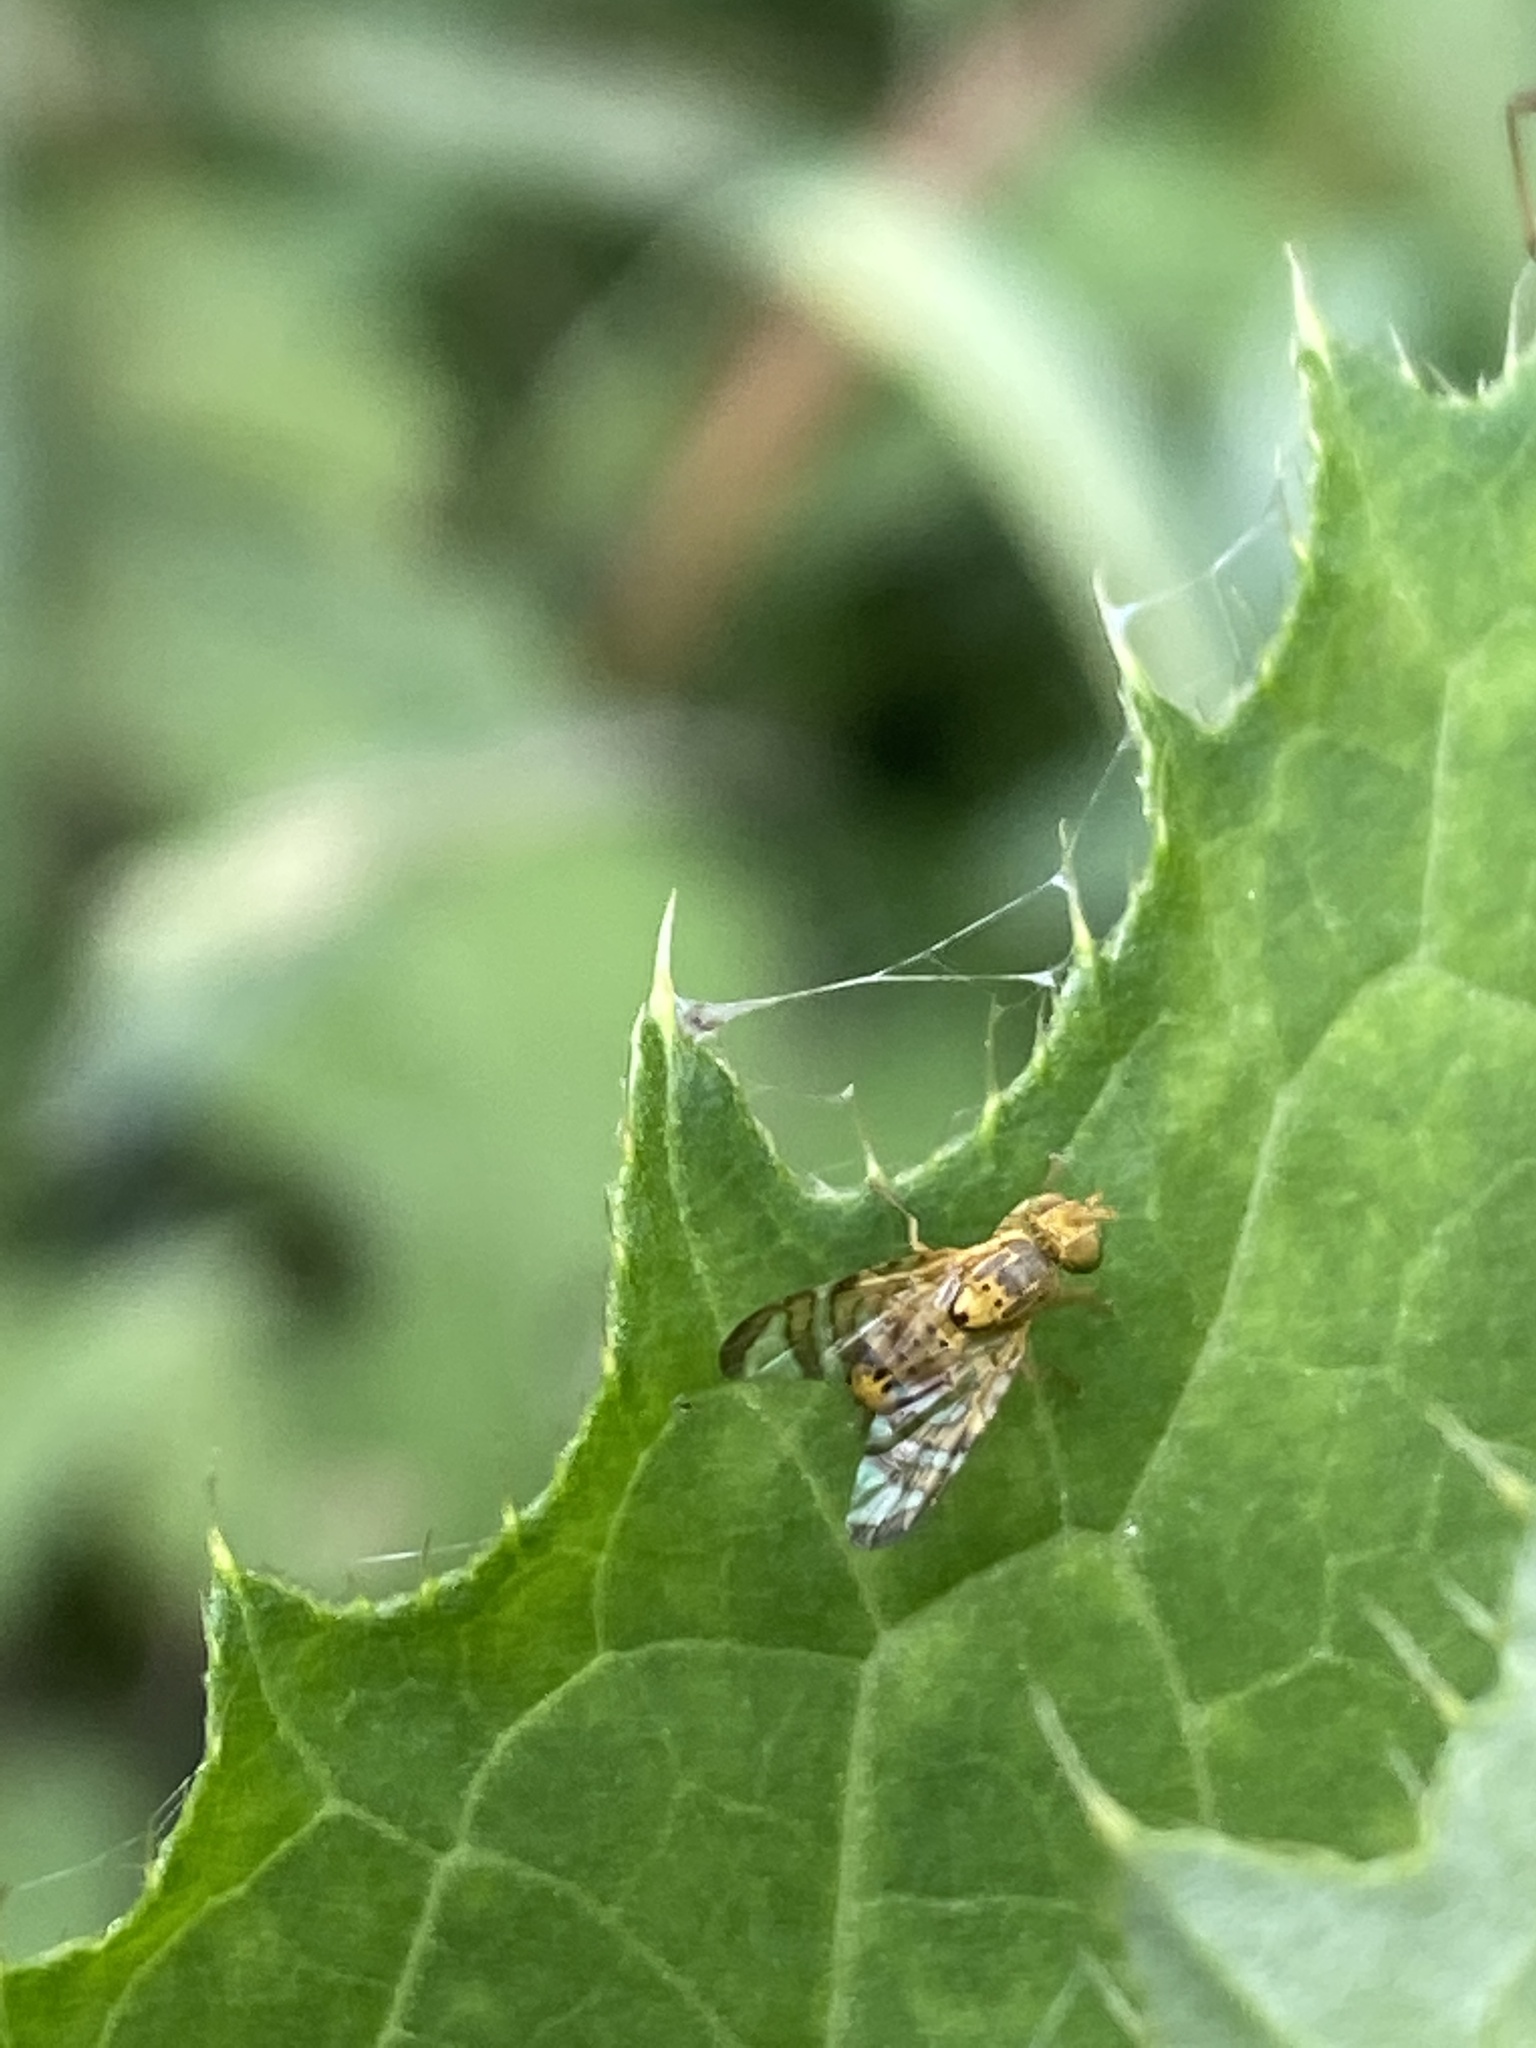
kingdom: Animalia
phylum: Arthropoda
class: Insecta
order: Diptera
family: Tephritidae
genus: Chaetostomella
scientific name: Chaetostomella cylindrica
